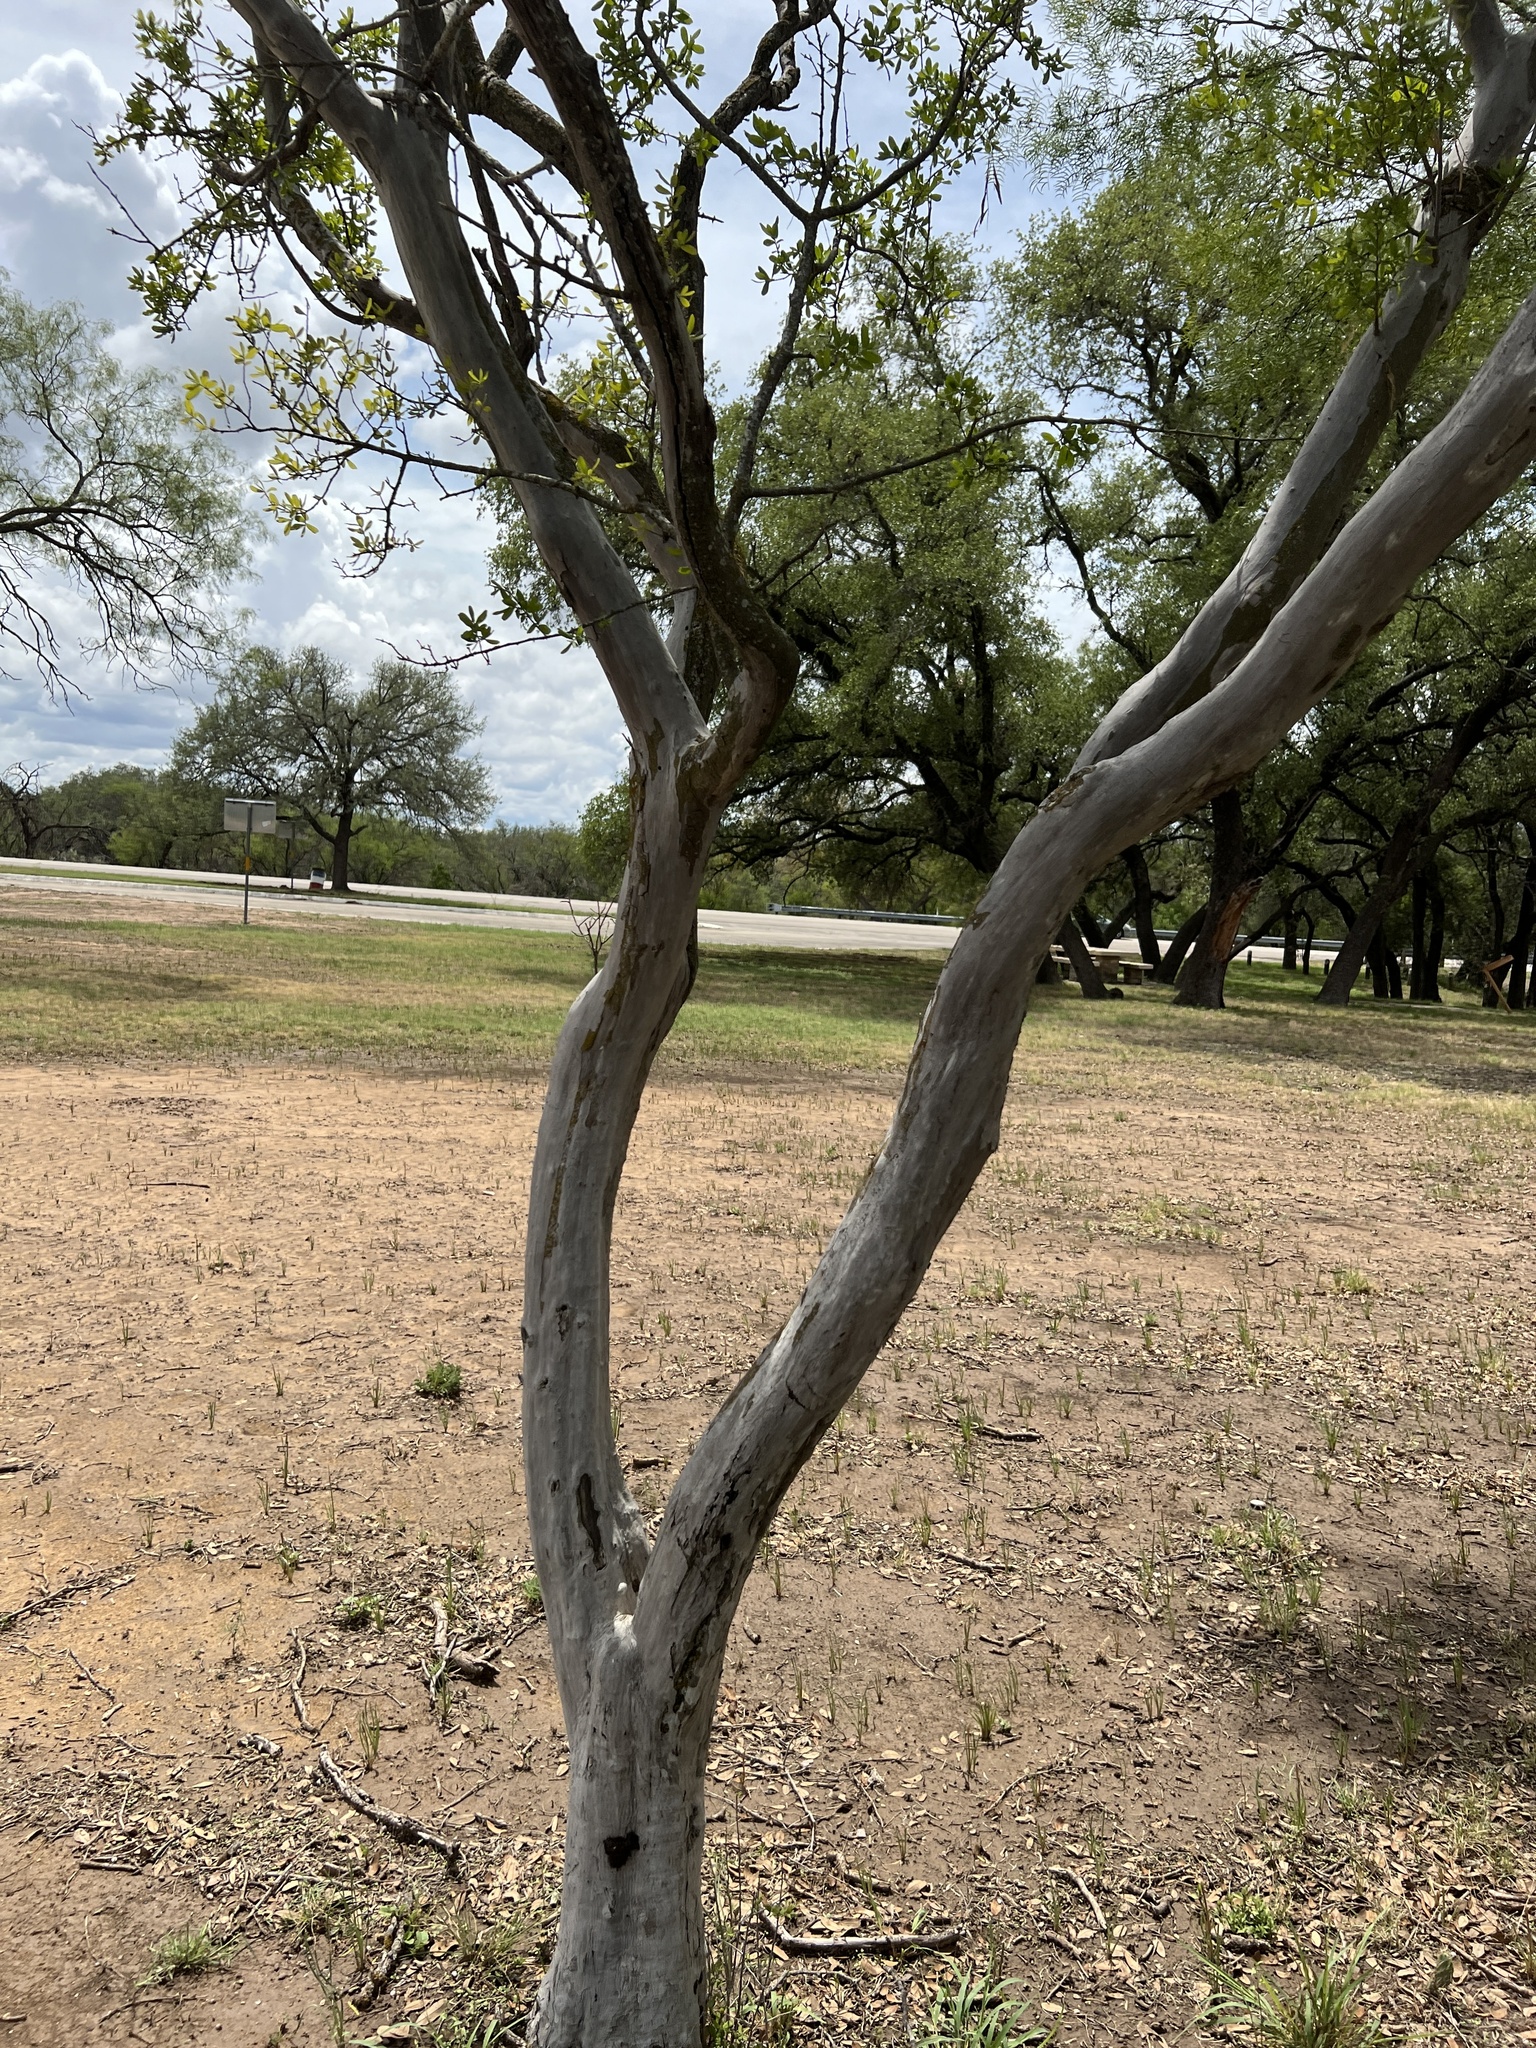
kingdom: Plantae
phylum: Tracheophyta
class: Magnoliopsida
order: Ericales
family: Ebenaceae
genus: Diospyros
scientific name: Diospyros texana
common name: Texas persimmon
